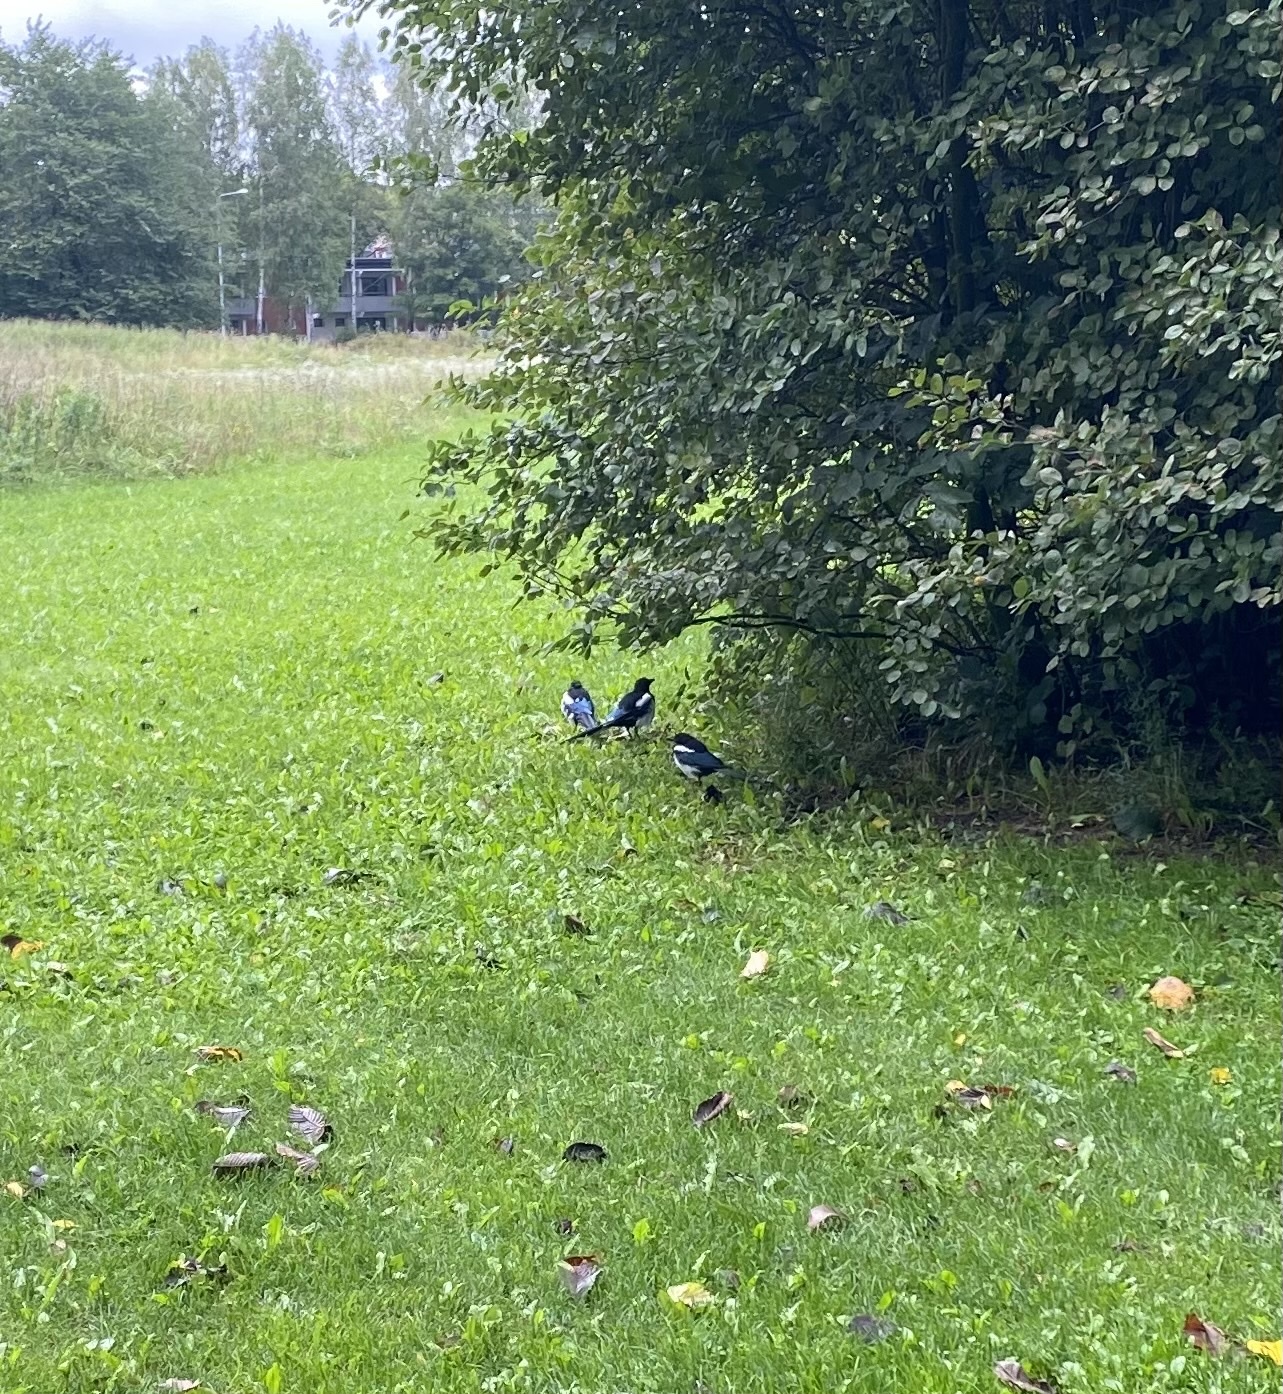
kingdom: Animalia
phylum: Chordata
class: Aves
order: Passeriformes
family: Corvidae
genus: Pica
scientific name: Pica pica
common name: Eurasian magpie
